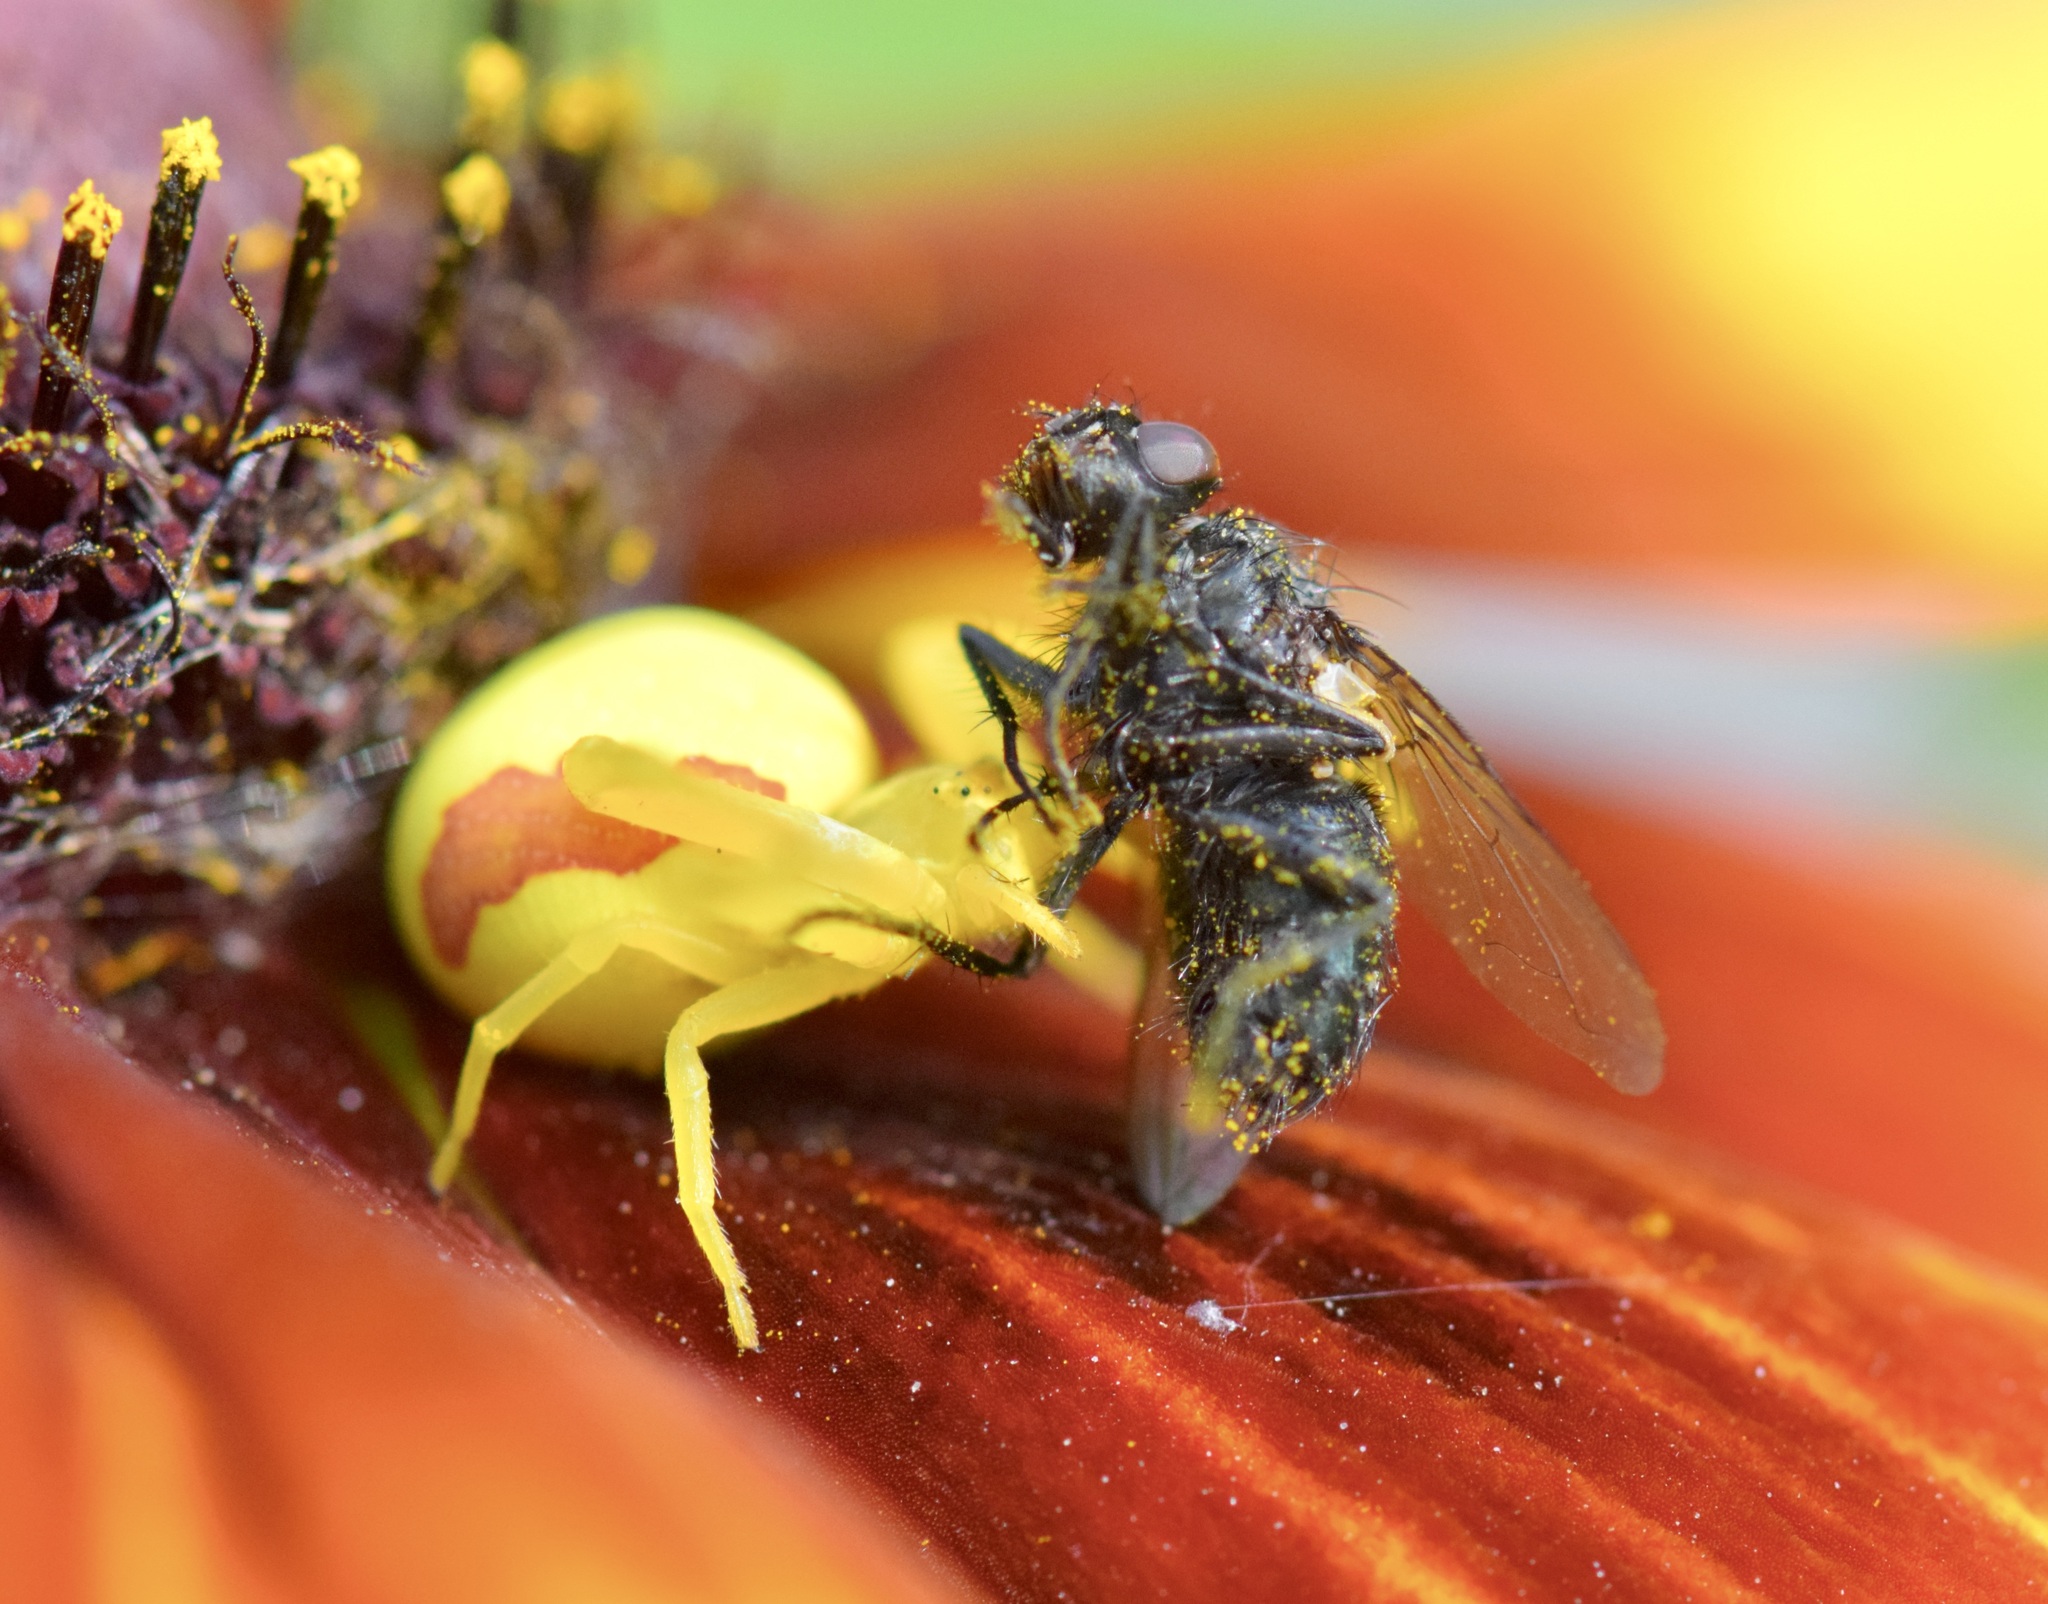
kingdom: Animalia
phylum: Arthropoda
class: Arachnida
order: Araneae
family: Thomisidae
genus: Misumena
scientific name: Misumena vatia
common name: Goldenrod crab spider
